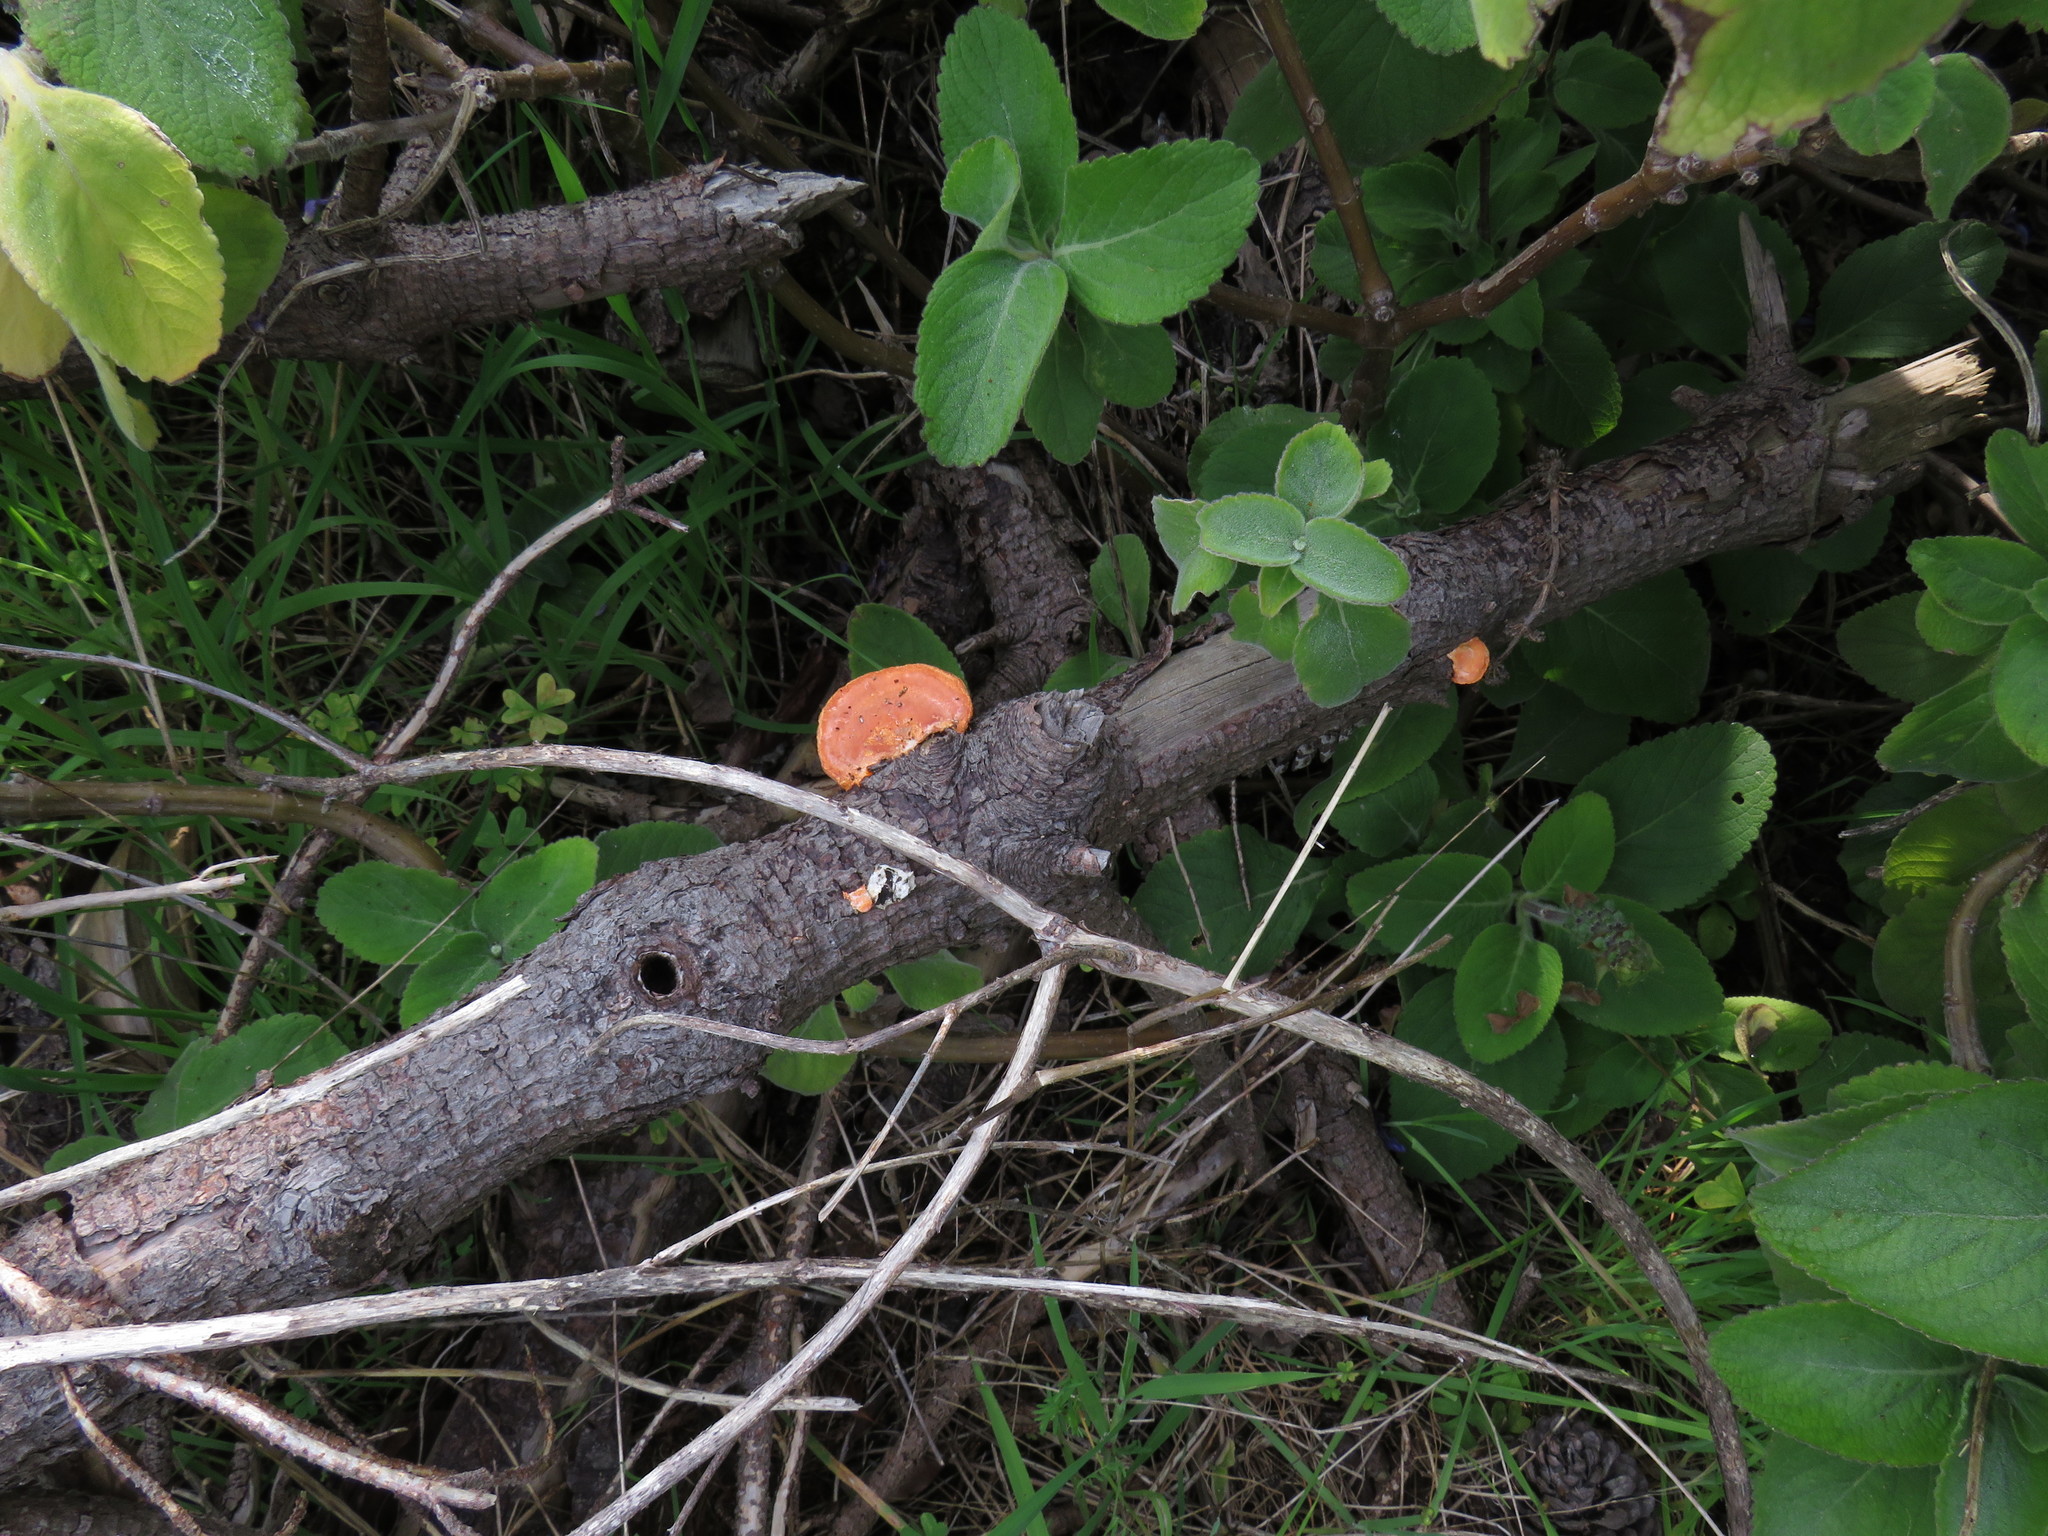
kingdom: Fungi
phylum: Basidiomycota
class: Agaricomycetes
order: Polyporales
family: Polyporaceae
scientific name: Polyporaceae
